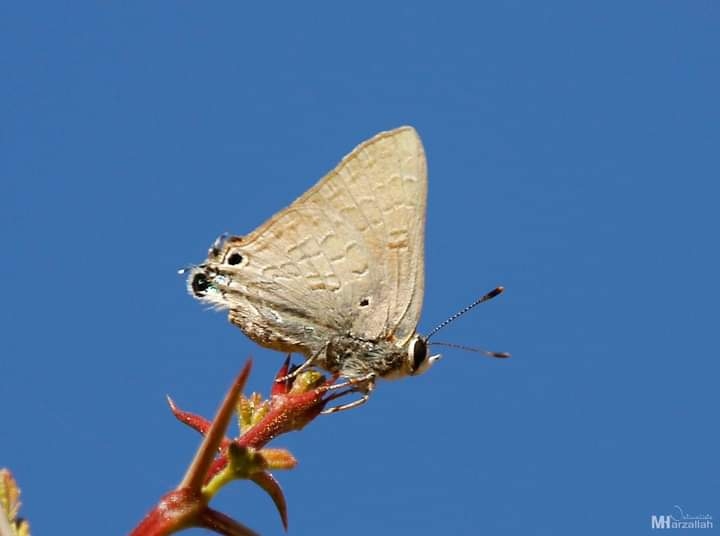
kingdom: Animalia
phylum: Arthropoda
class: Insecta
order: Lepidoptera
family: Lycaenidae
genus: Deudorix
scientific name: Deudorix livia
